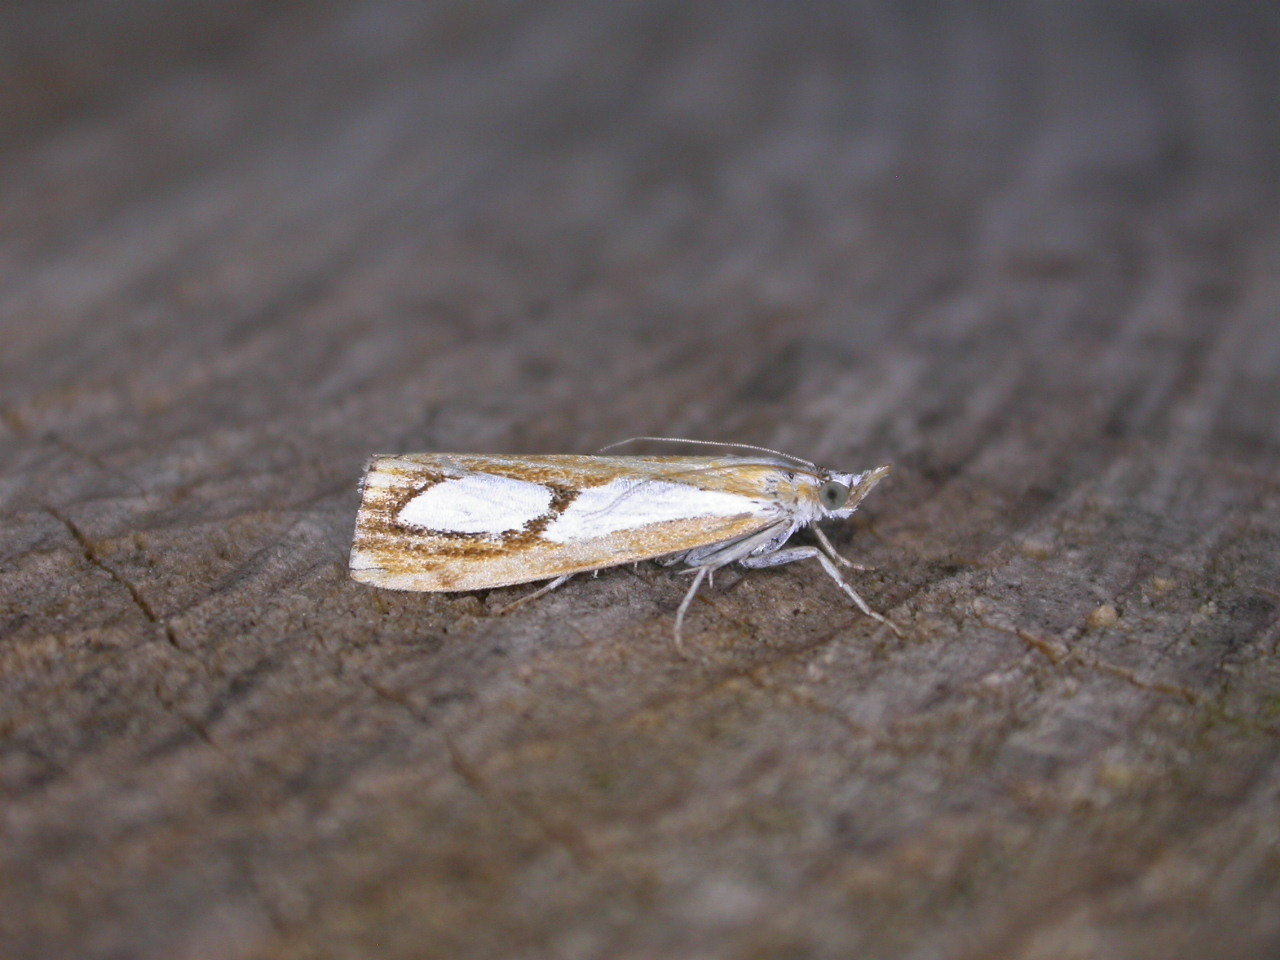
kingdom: Animalia
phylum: Arthropoda
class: Insecta
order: Lepidoptera
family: Crambidae
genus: Catoptria
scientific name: Catoptria pinella
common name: Pearl grass-veneer
